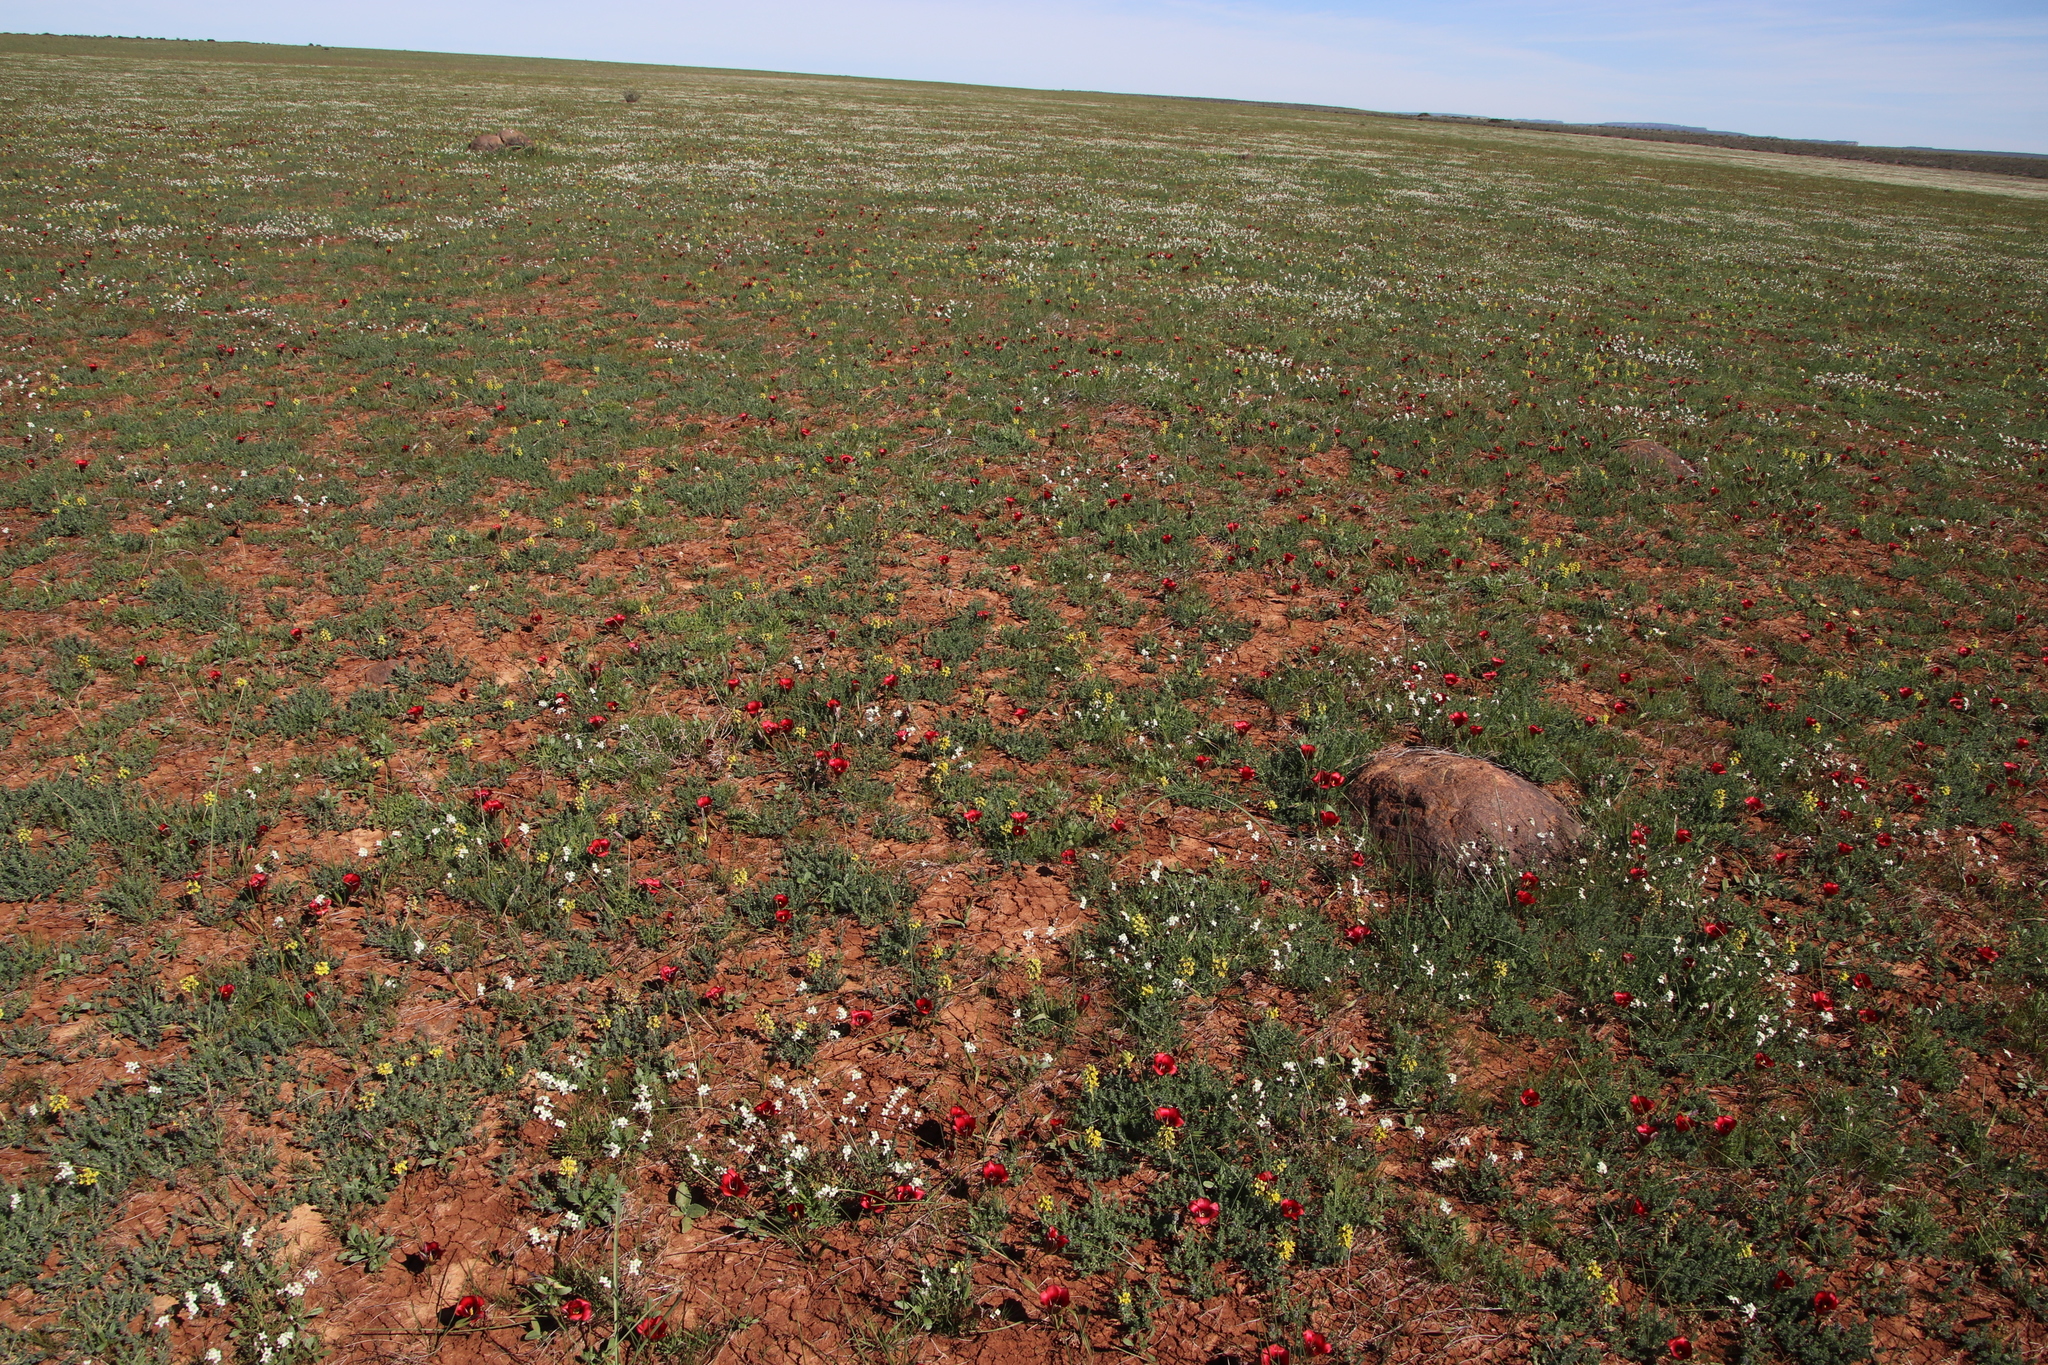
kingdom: Plantae
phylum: Tracheophyta
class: Liliopsida
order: Asparagales
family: Iridaceae
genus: Romulea
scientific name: Romulea monadelpha
